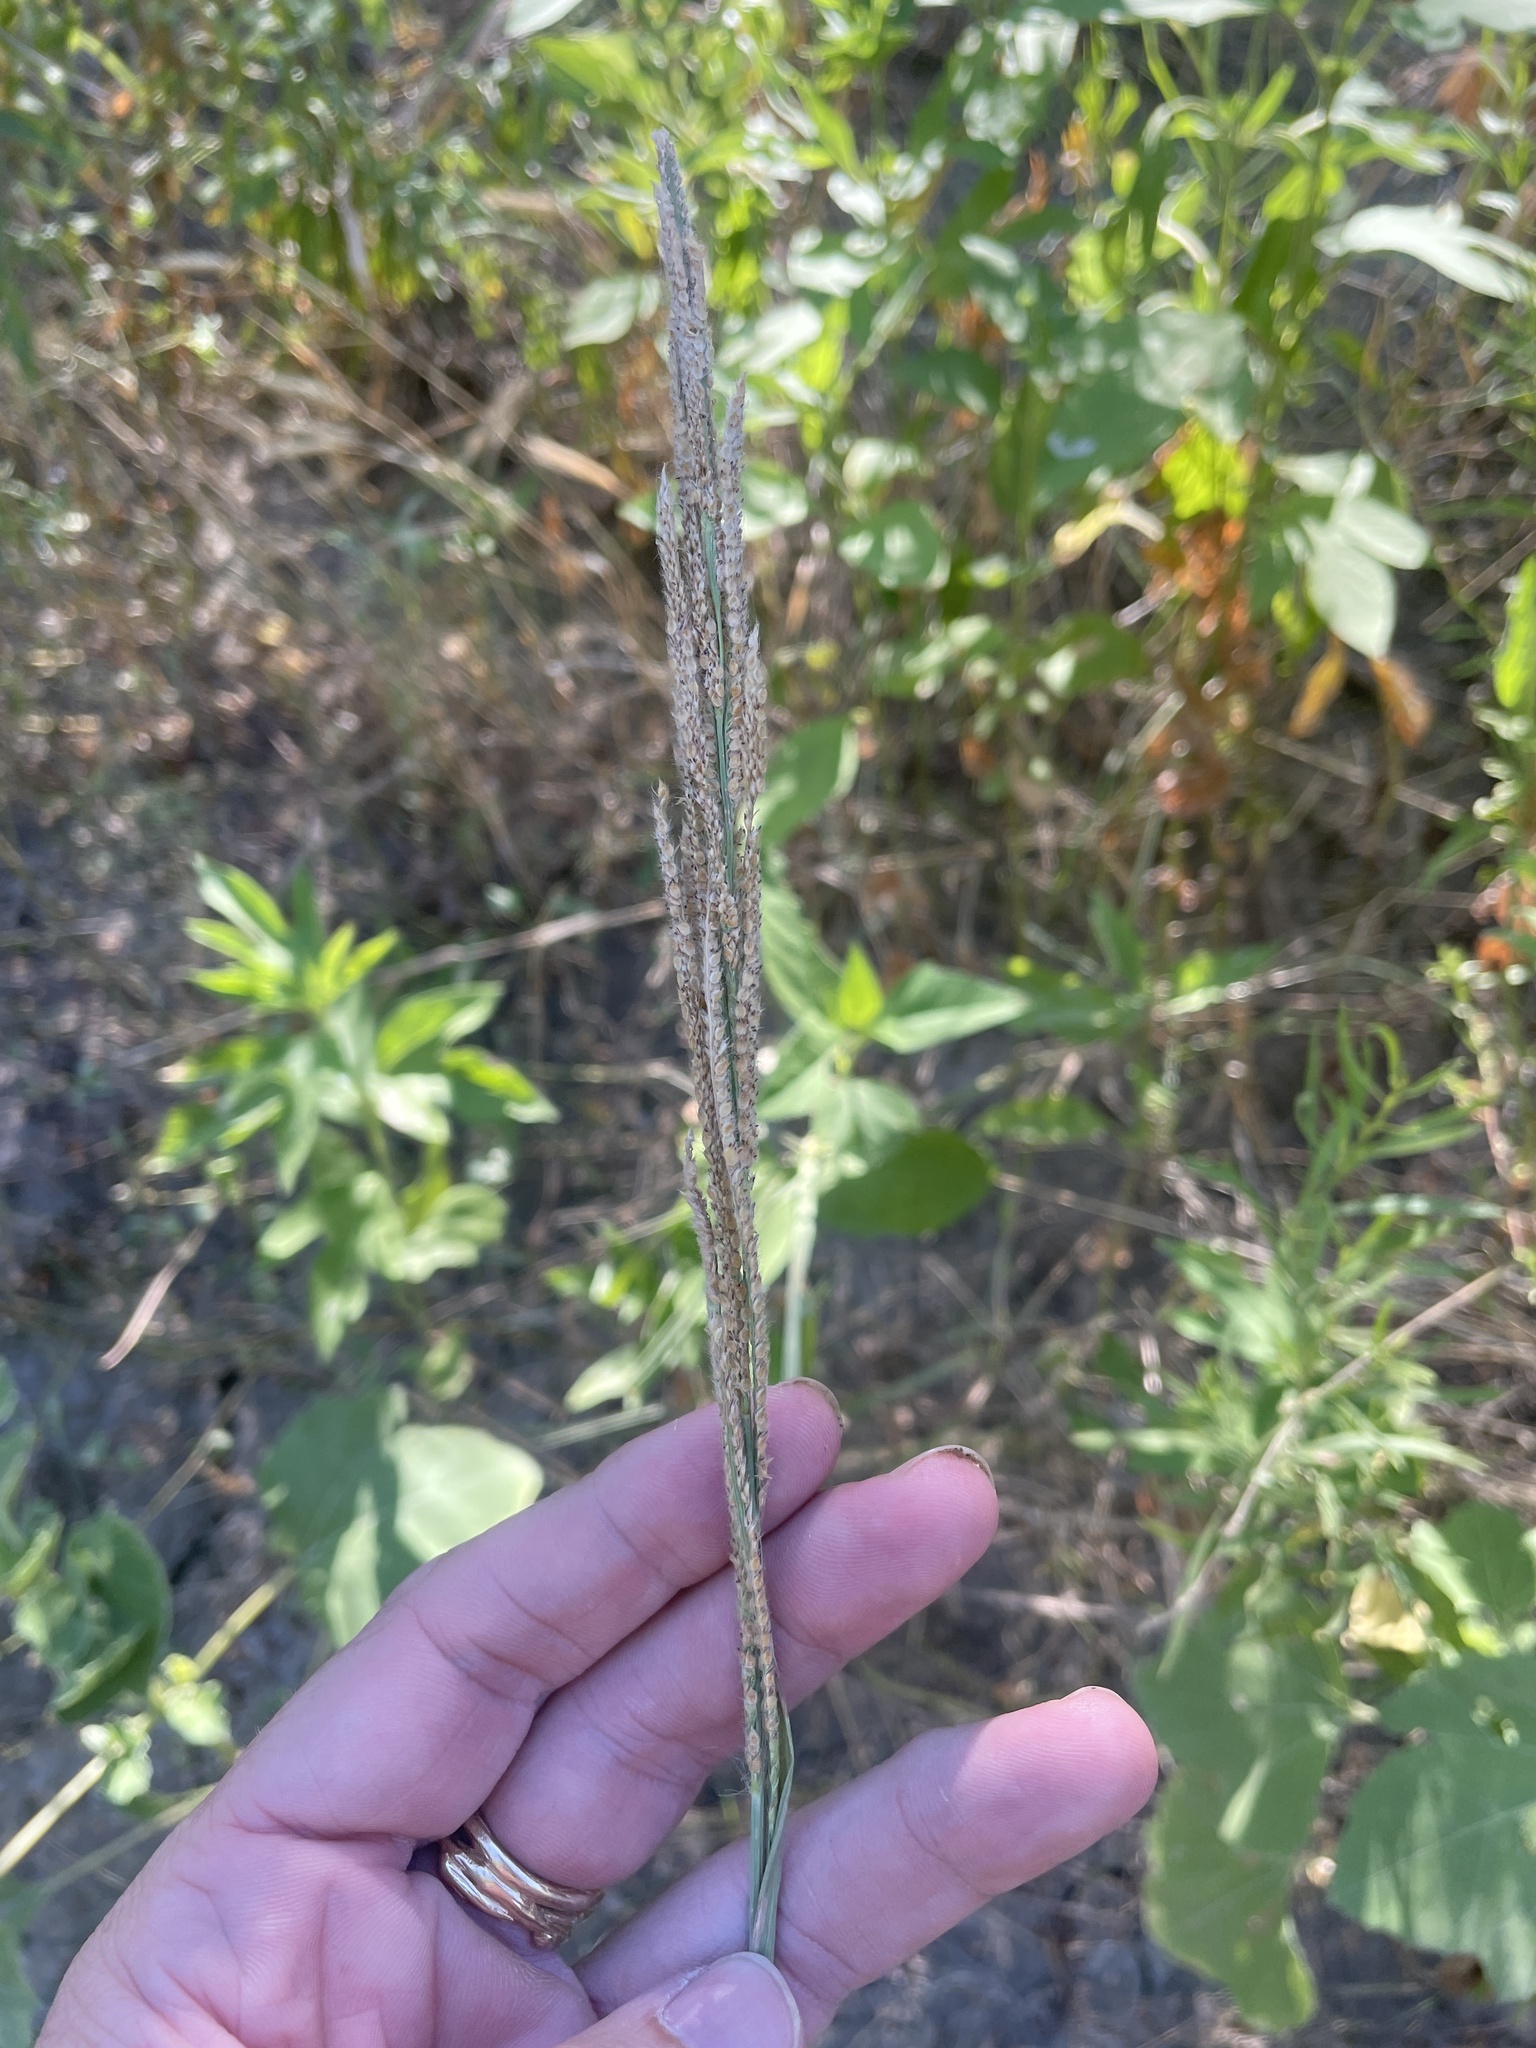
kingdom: Plantae
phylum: Tracheophyta
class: Liliopsida
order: Poales
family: Poaceae
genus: Paspalum
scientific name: Paspalum urvillei
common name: Vasey's grass
